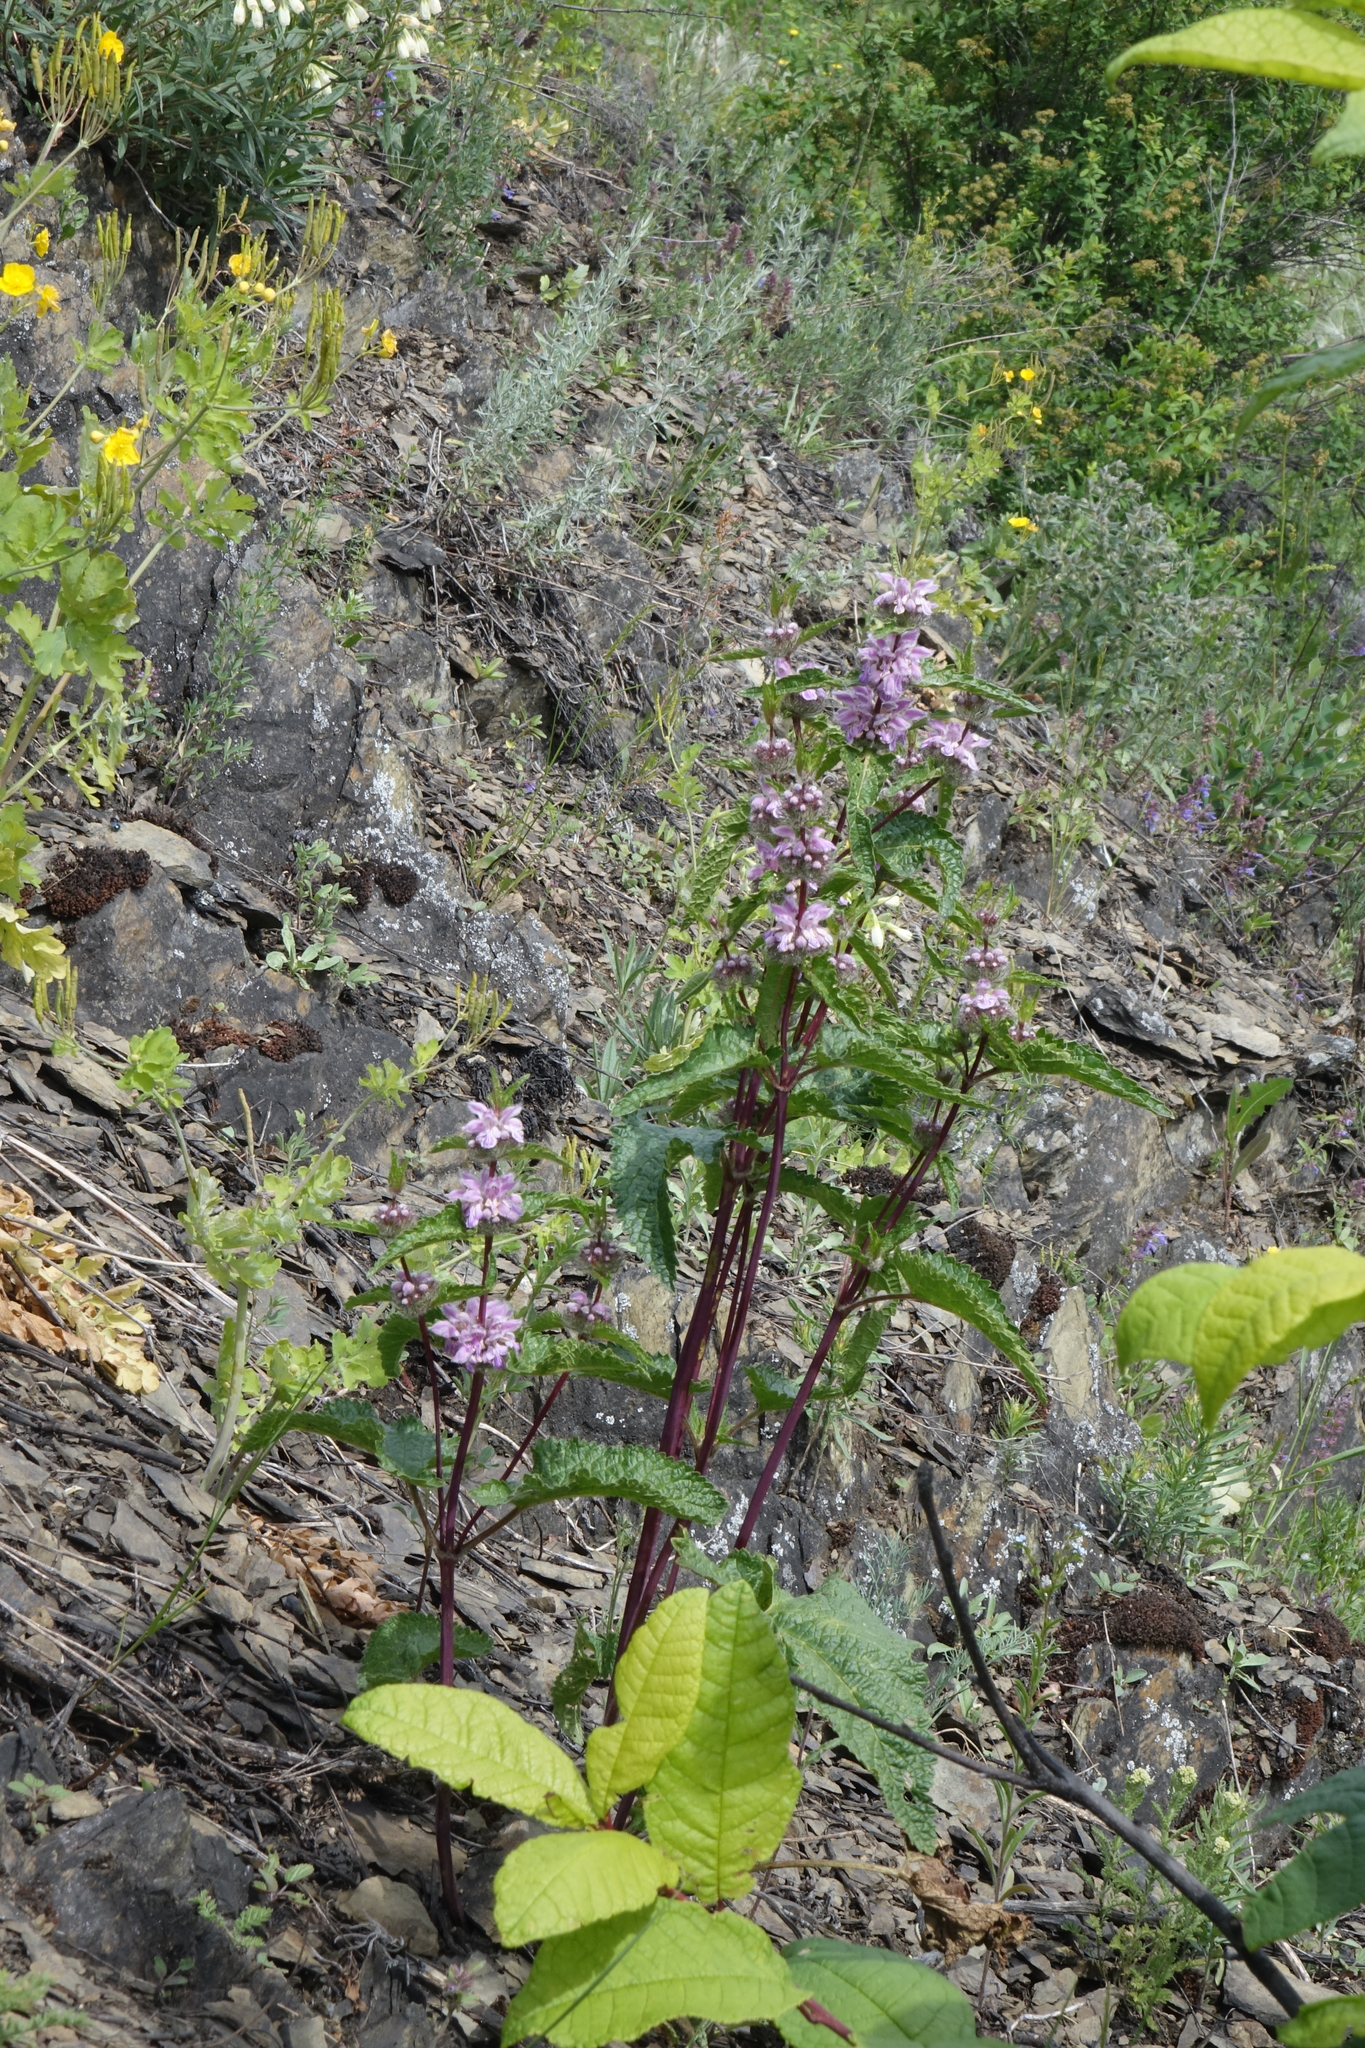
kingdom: Plantae
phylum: Tracheophyta
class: Magnoliopsida
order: Lamiales
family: Lamiaceae
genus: Phlomoides
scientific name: Phlomoides tuberosa
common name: Tuberous jerusalem sage
